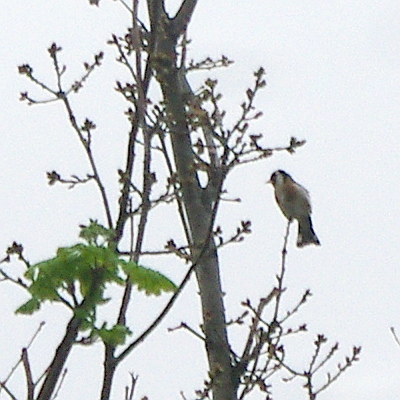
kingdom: Animalia
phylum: Chordata
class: Aves
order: Passeriformes
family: Fringillidae
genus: Carduelis
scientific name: Carduelis carduelis
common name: European goldfinch
